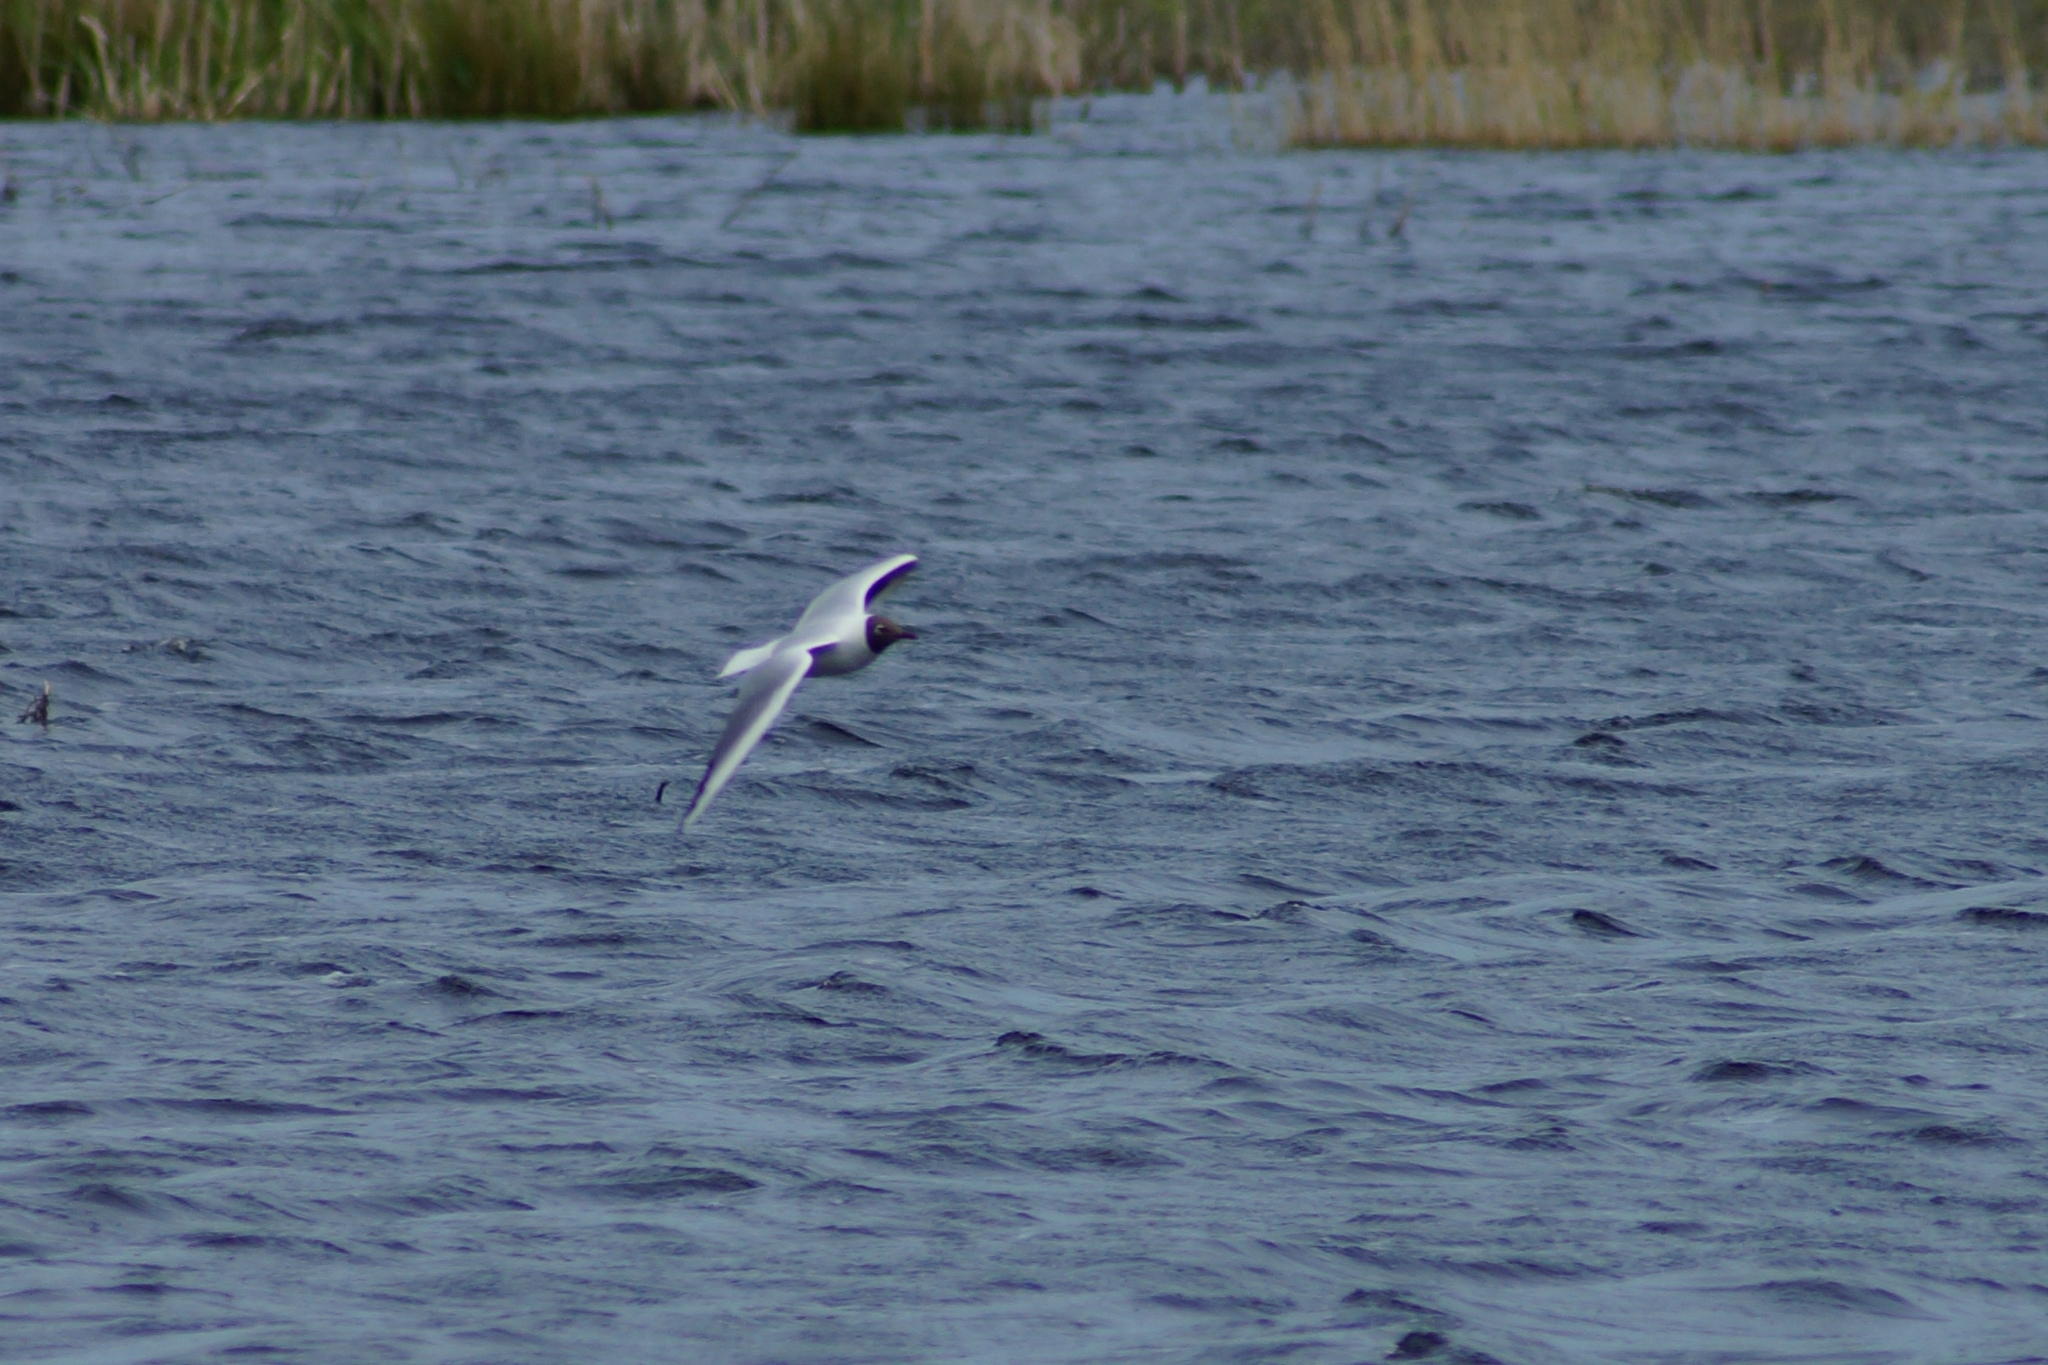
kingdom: Animalia
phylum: Chordata
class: Aves
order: Charadriiformes
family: Laridae
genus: Chroicocephalus
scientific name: Chroicocephalus ridibundus
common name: Black-headed gull
